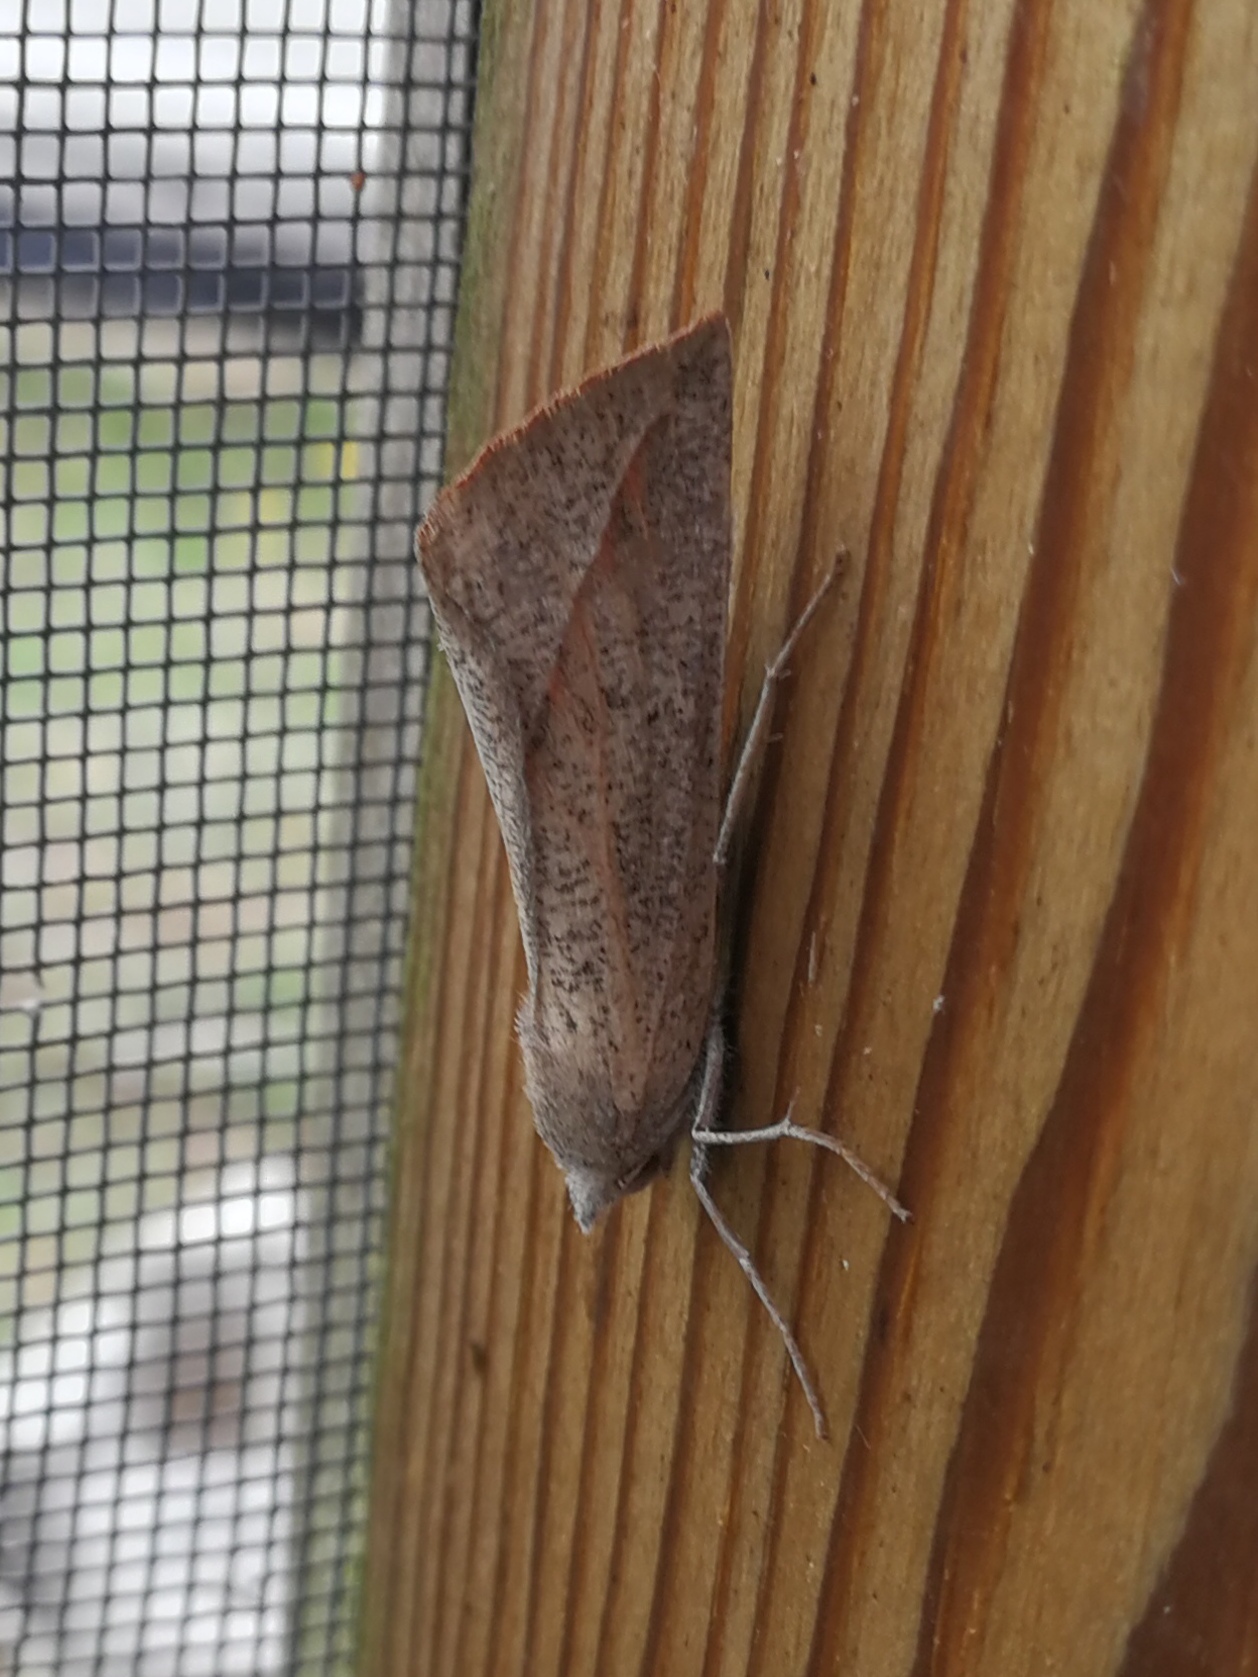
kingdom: Animalia
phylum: Arthropoda
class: Insecta
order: Lepidoptera
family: Geometridae
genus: Compsoptera
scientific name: Compsoptera opacaria
